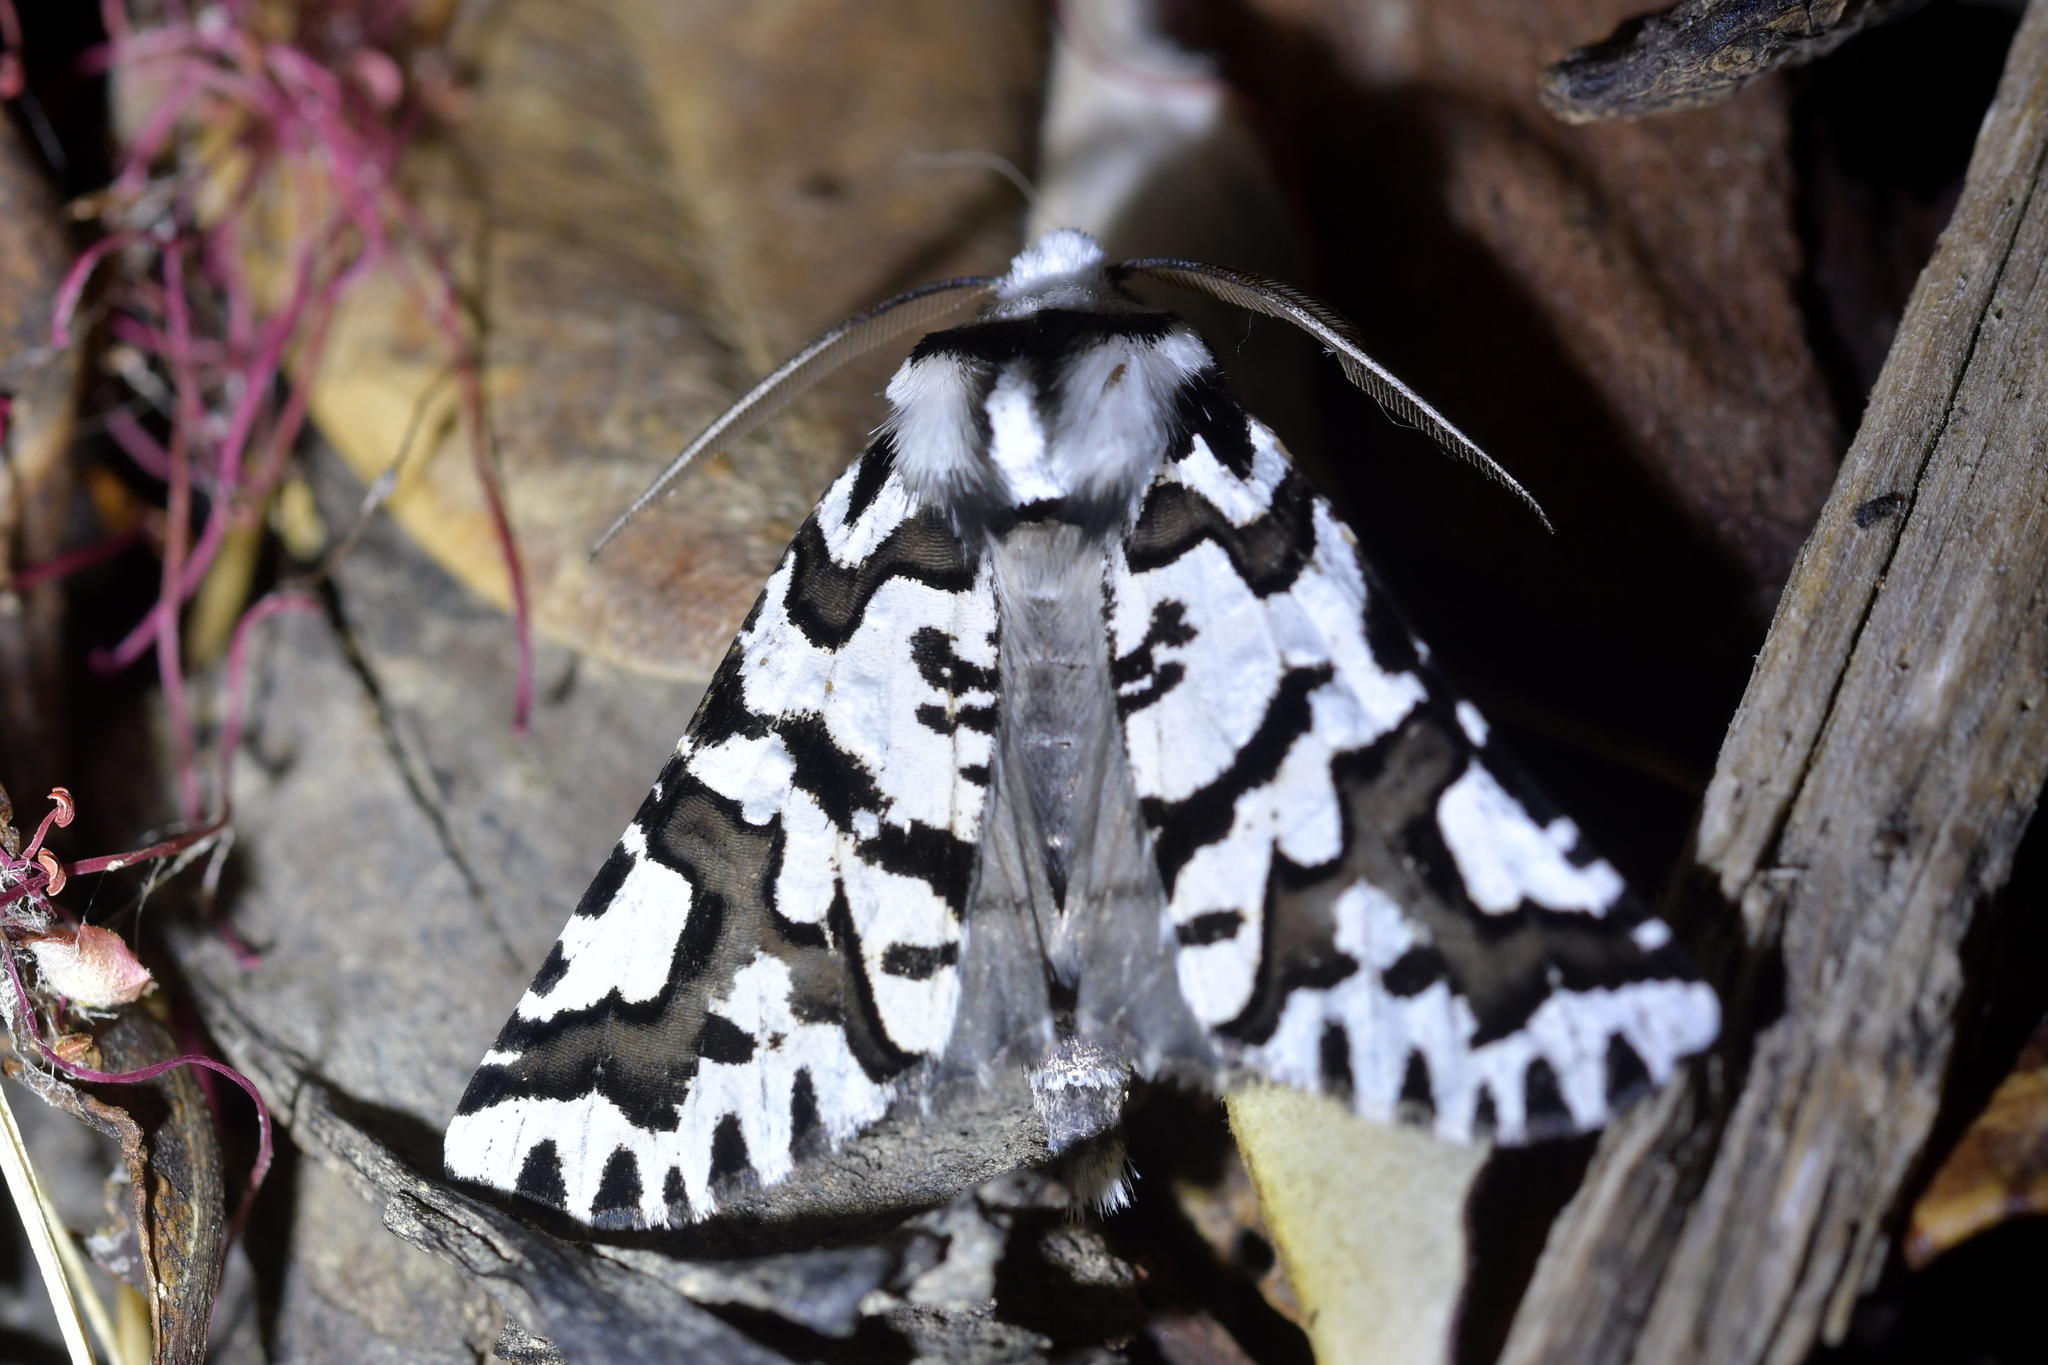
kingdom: Animalia
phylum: Arthropoda
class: Insecta
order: Lepidoptera
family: Geometridae
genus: Declana
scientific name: Declana
